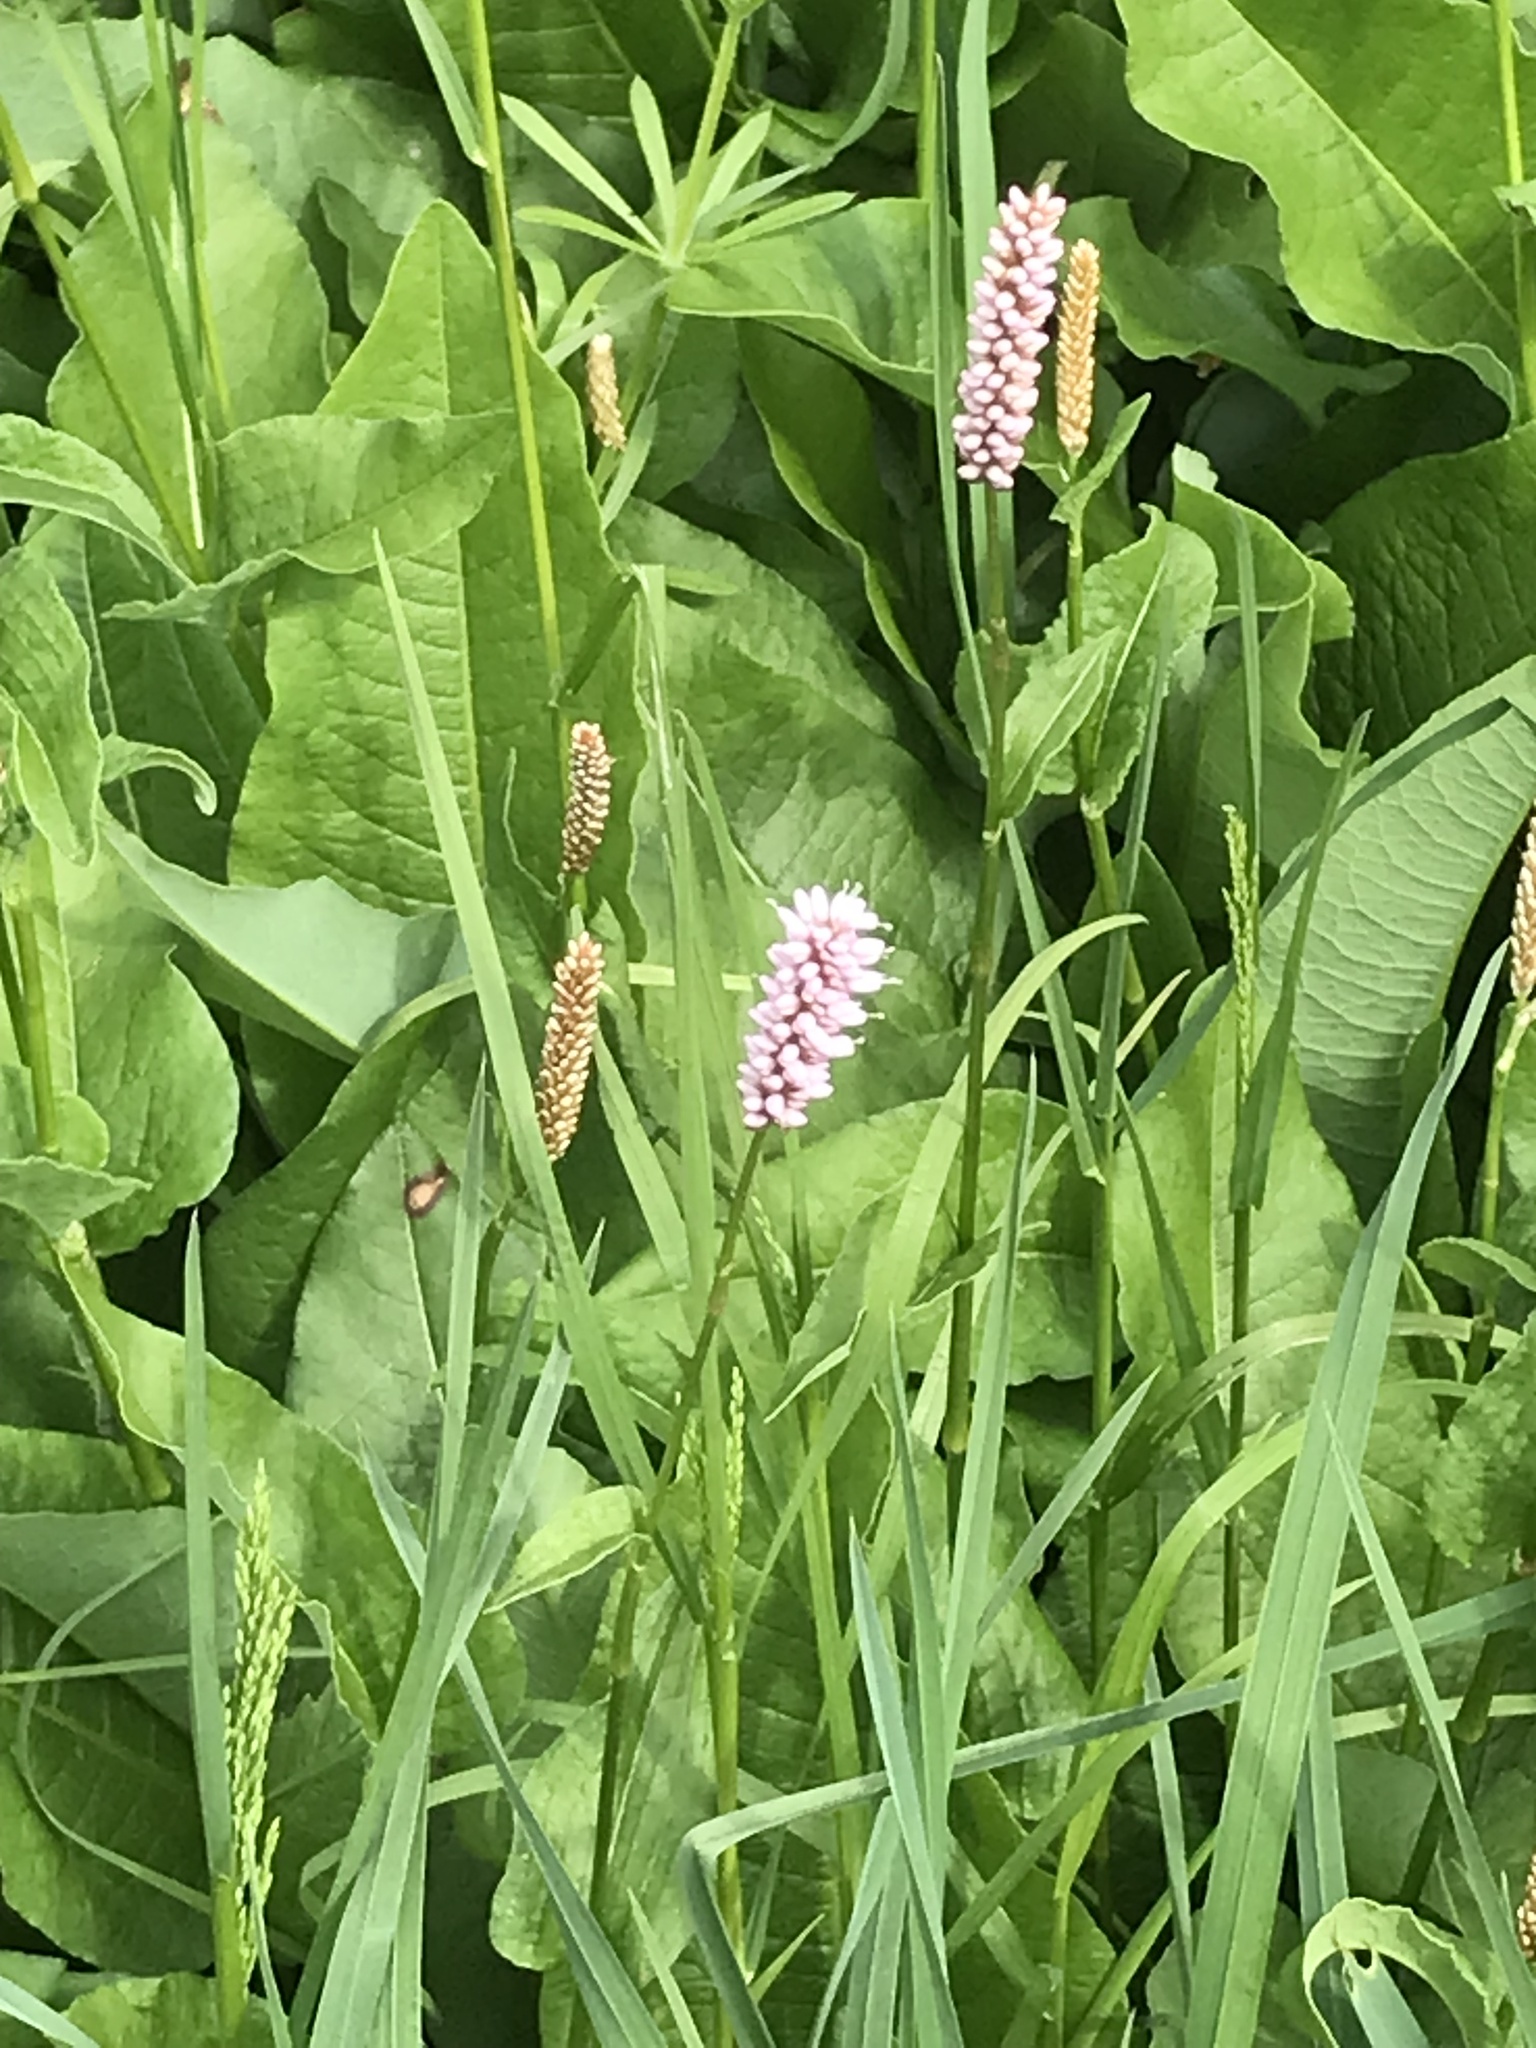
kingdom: Plantae
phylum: Tracheophyta
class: Magnoliopsida
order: Caryophyllales
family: Polygonaceae
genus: Bistorta
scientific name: Bistorta officinalis
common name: Common bistort
